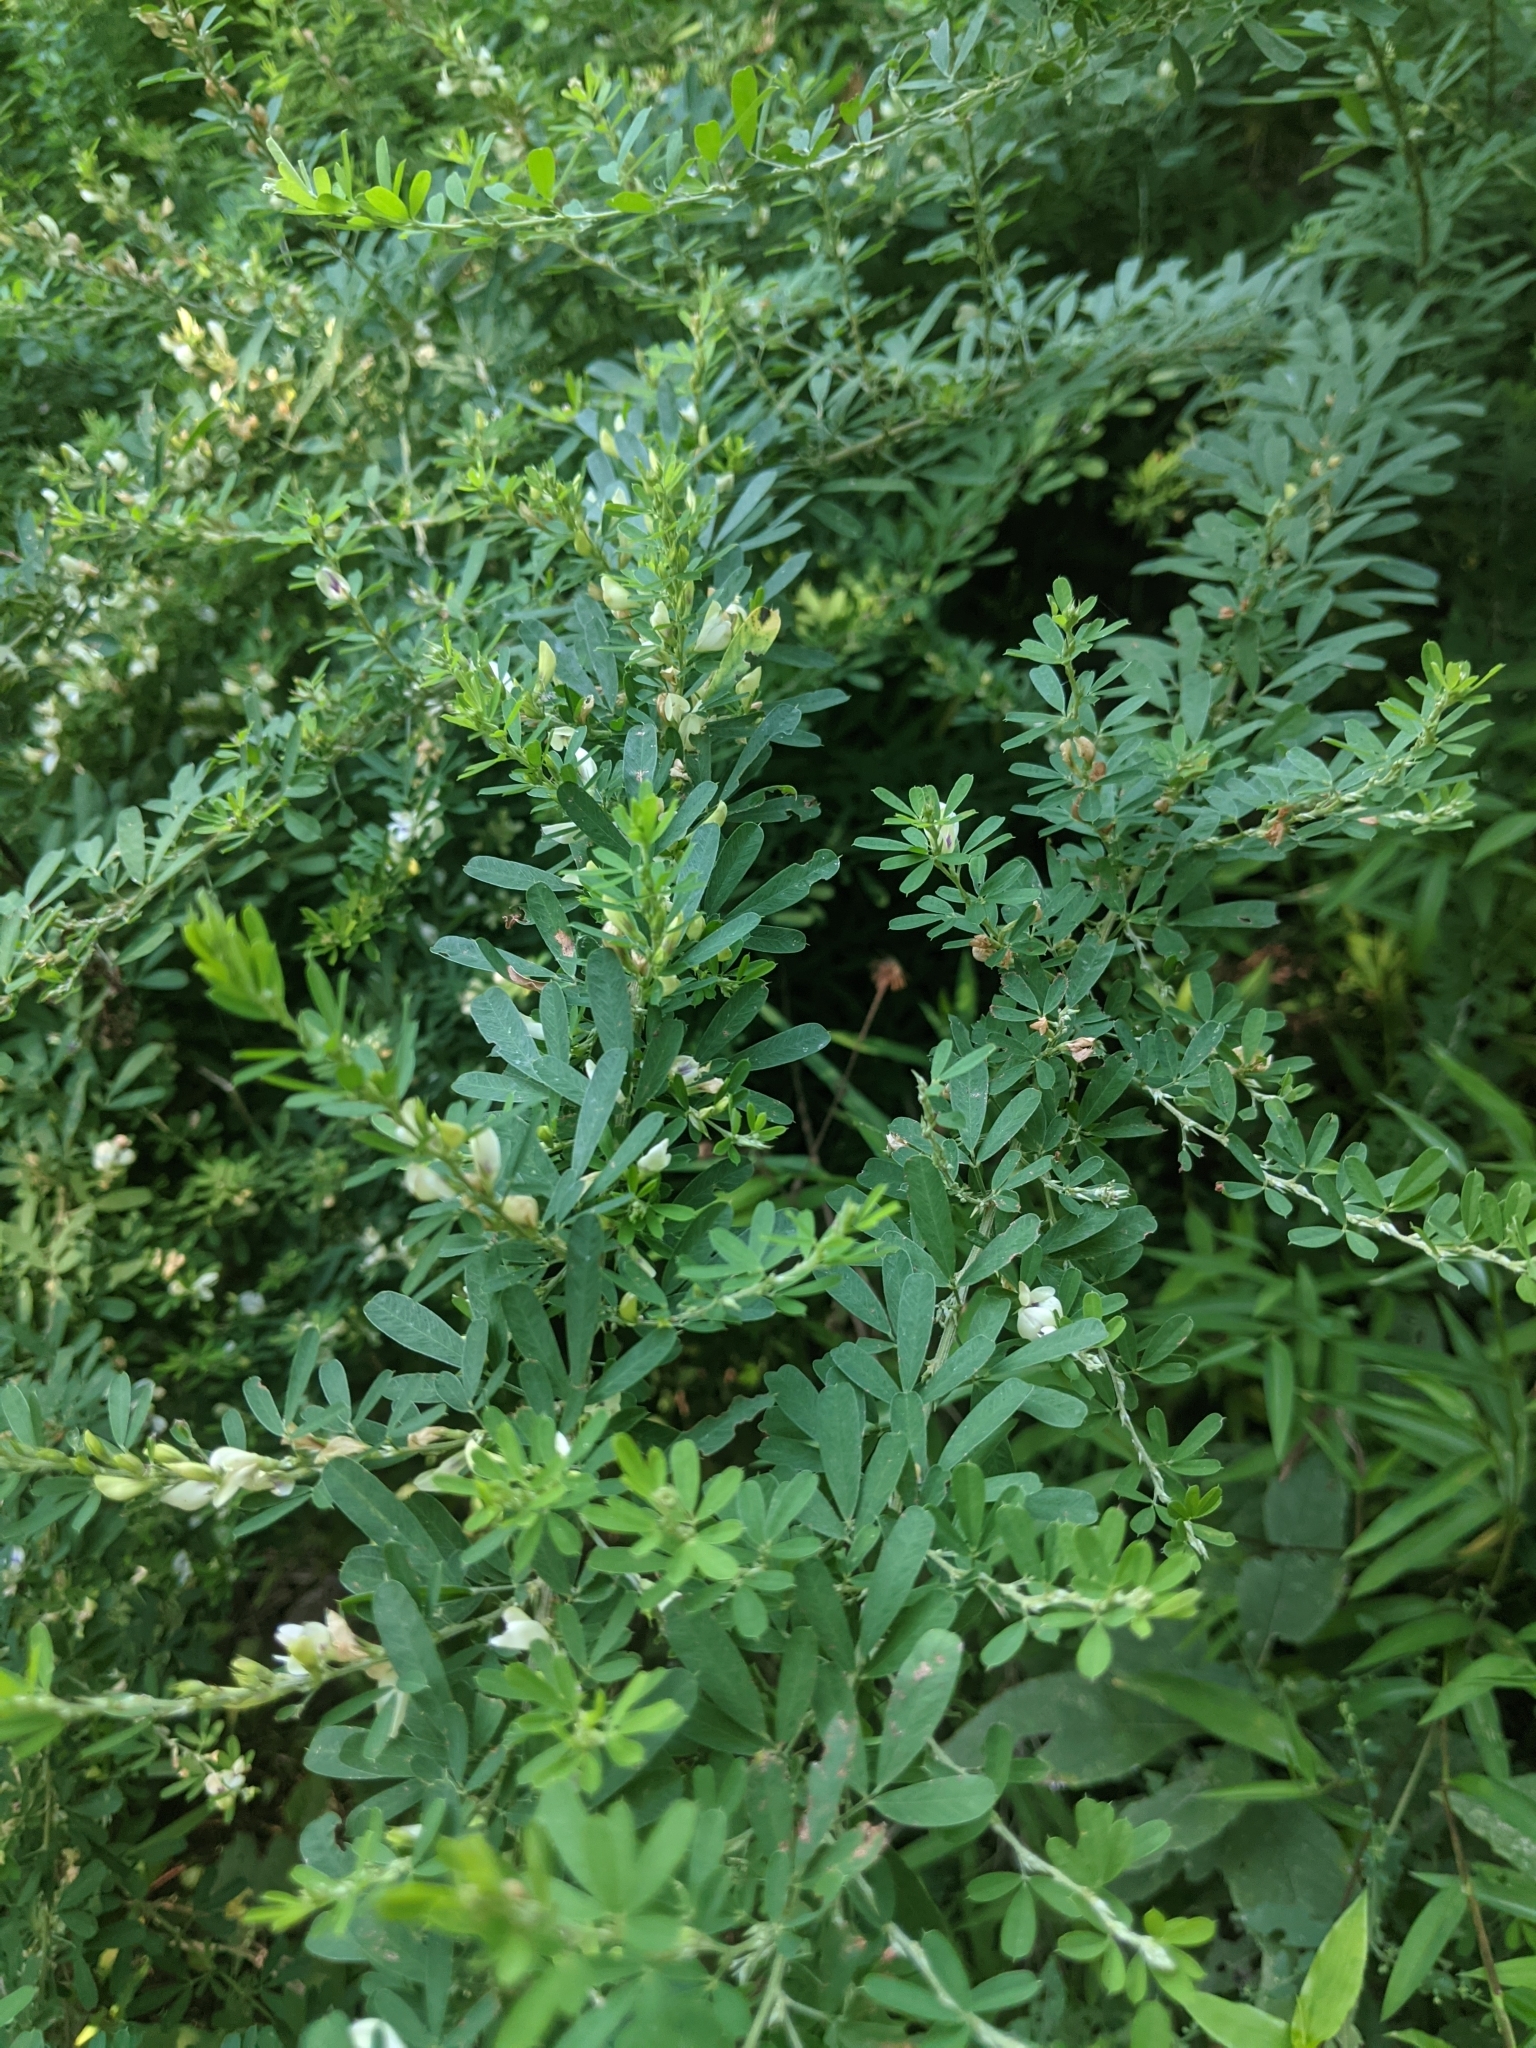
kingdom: Plantae
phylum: Tracheophyta
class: Magnoliopsida
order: Fabales
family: Fabaceae
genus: Lespedeza
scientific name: Lespedeza cuneata
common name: Chinese bush-clover
